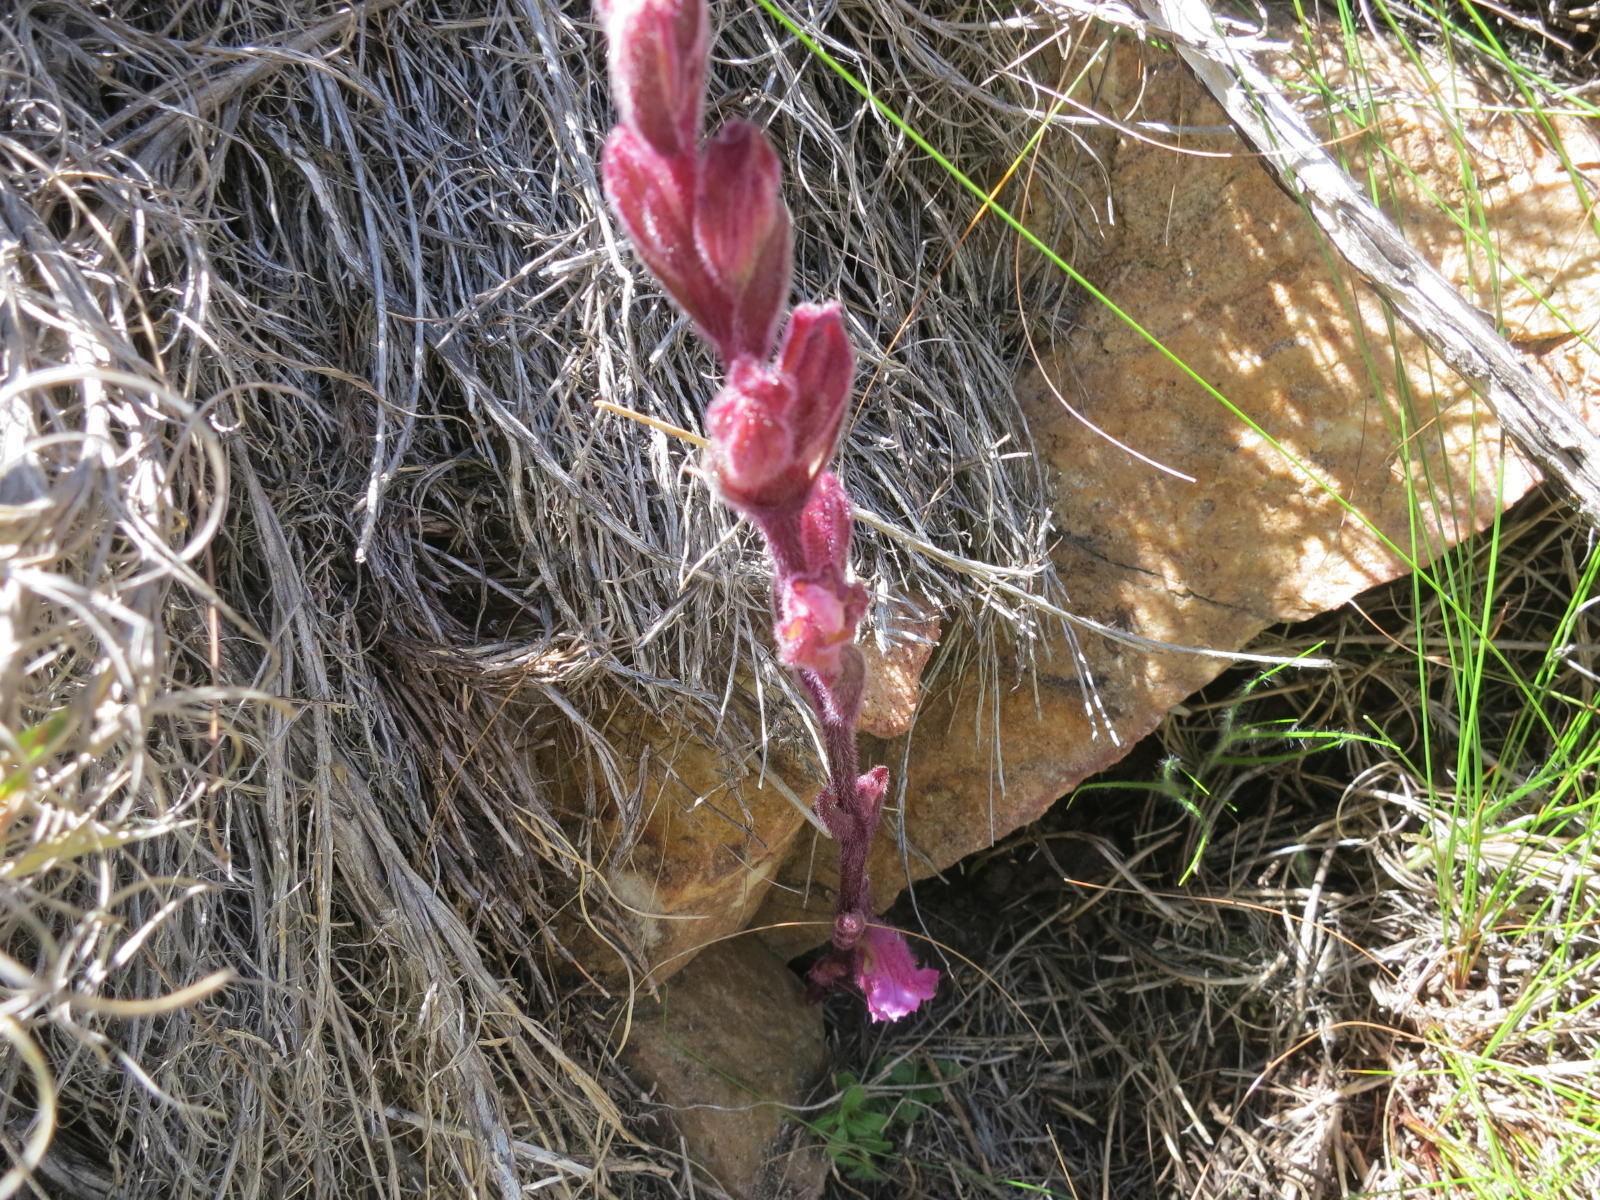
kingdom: Plantae
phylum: Tracheophyta
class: Magnoliopsida
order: Lamiales
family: Orobanchaceae
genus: Harveya
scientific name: Harveya pauciflora
